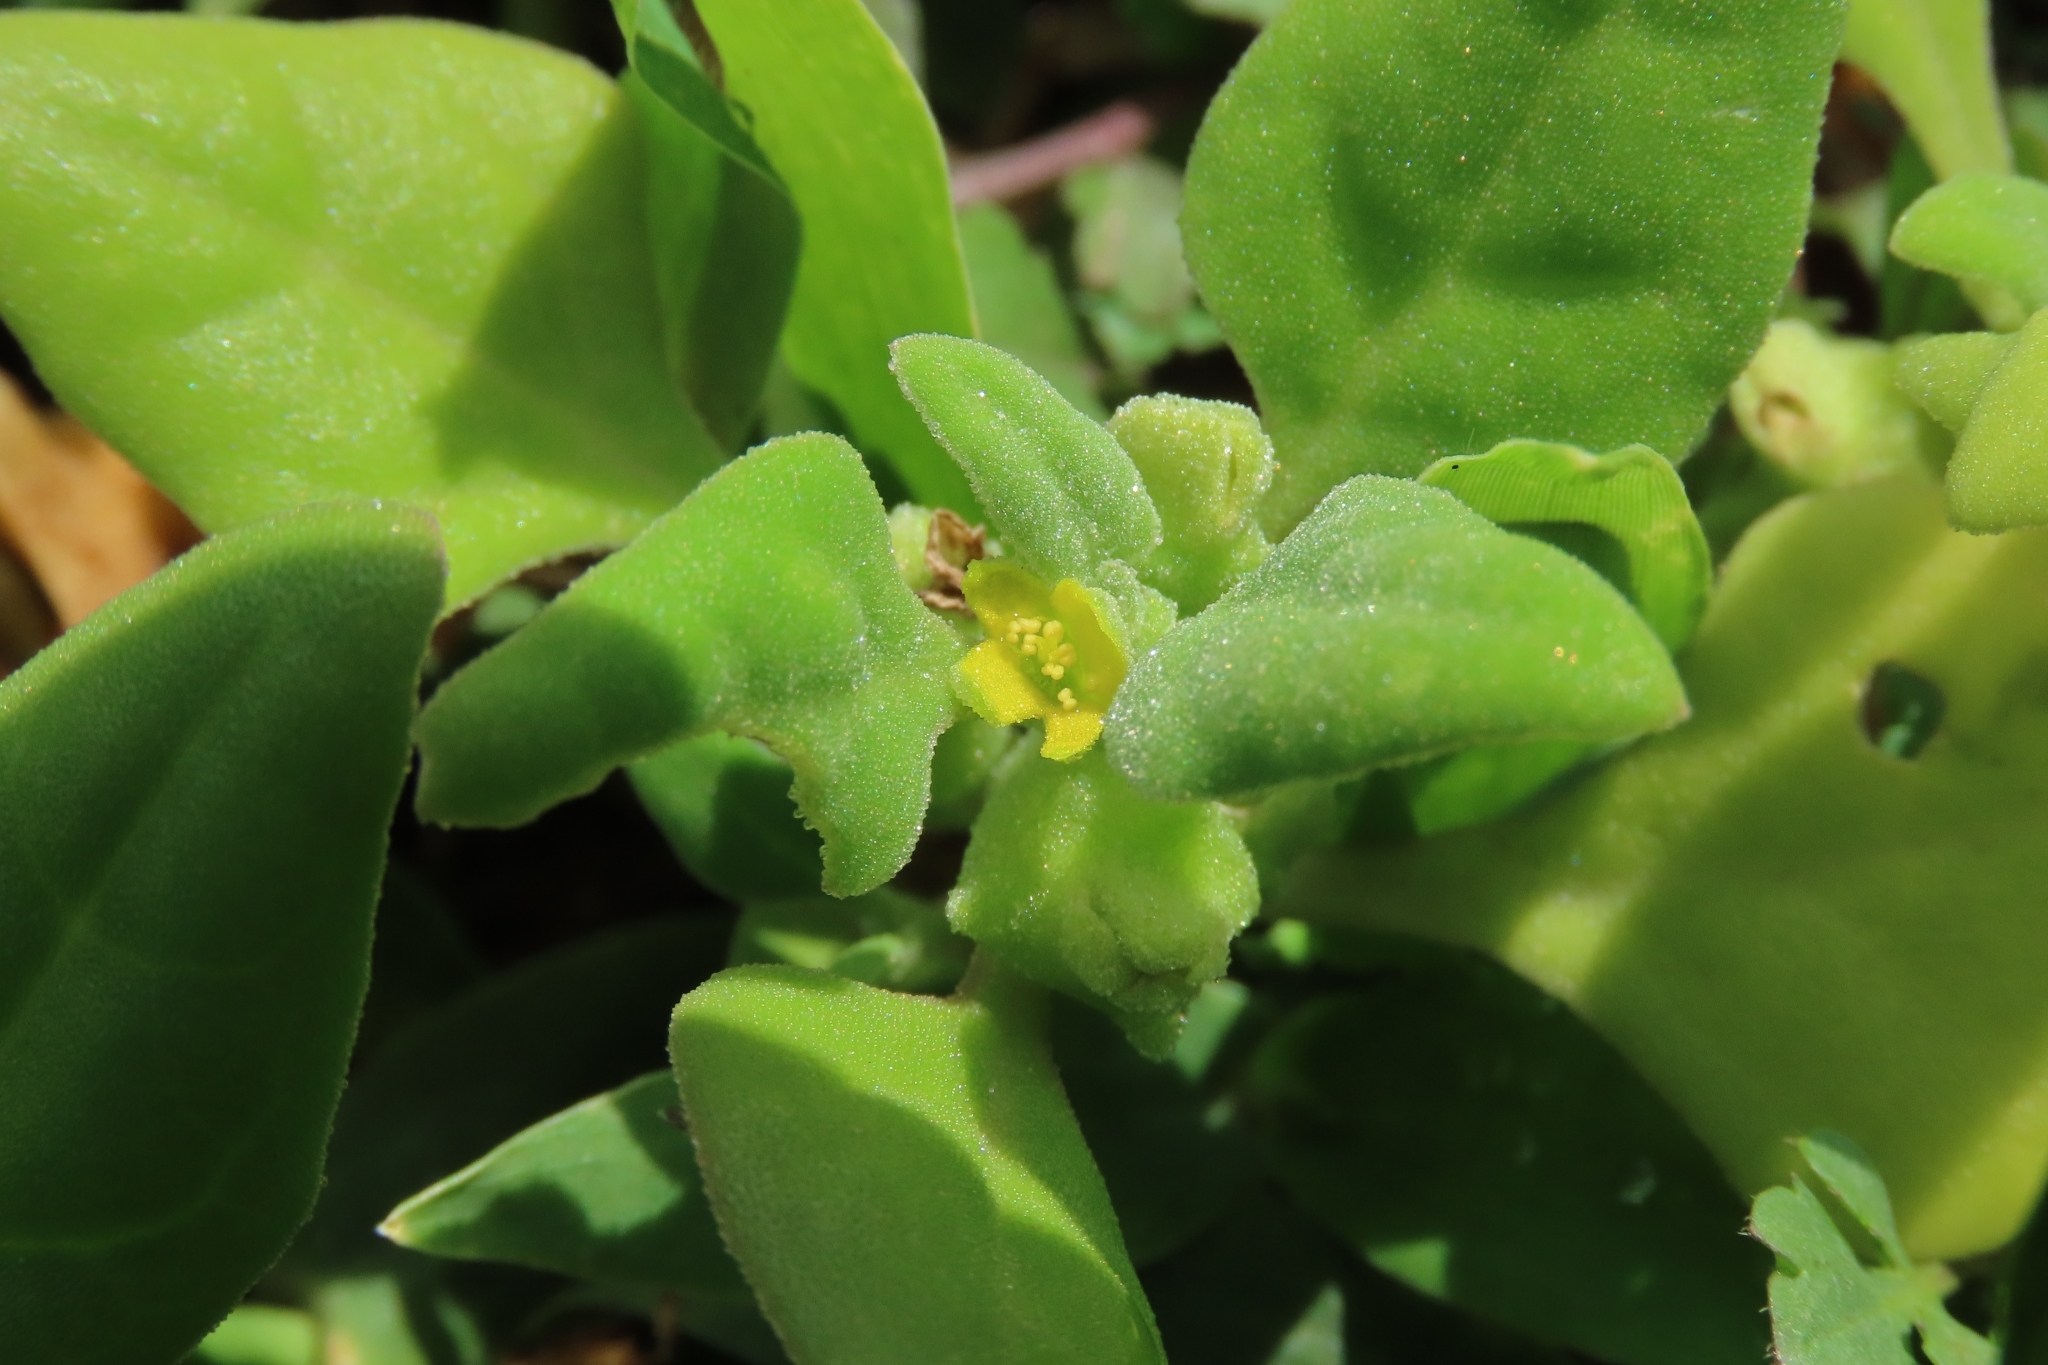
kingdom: Plantae
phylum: Tracheophyta
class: Magnoliopsida
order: Caryophyllales
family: Aizoaceae
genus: Tetragonia
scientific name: Tetragonia tetragonoides
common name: New zealand-spinach
